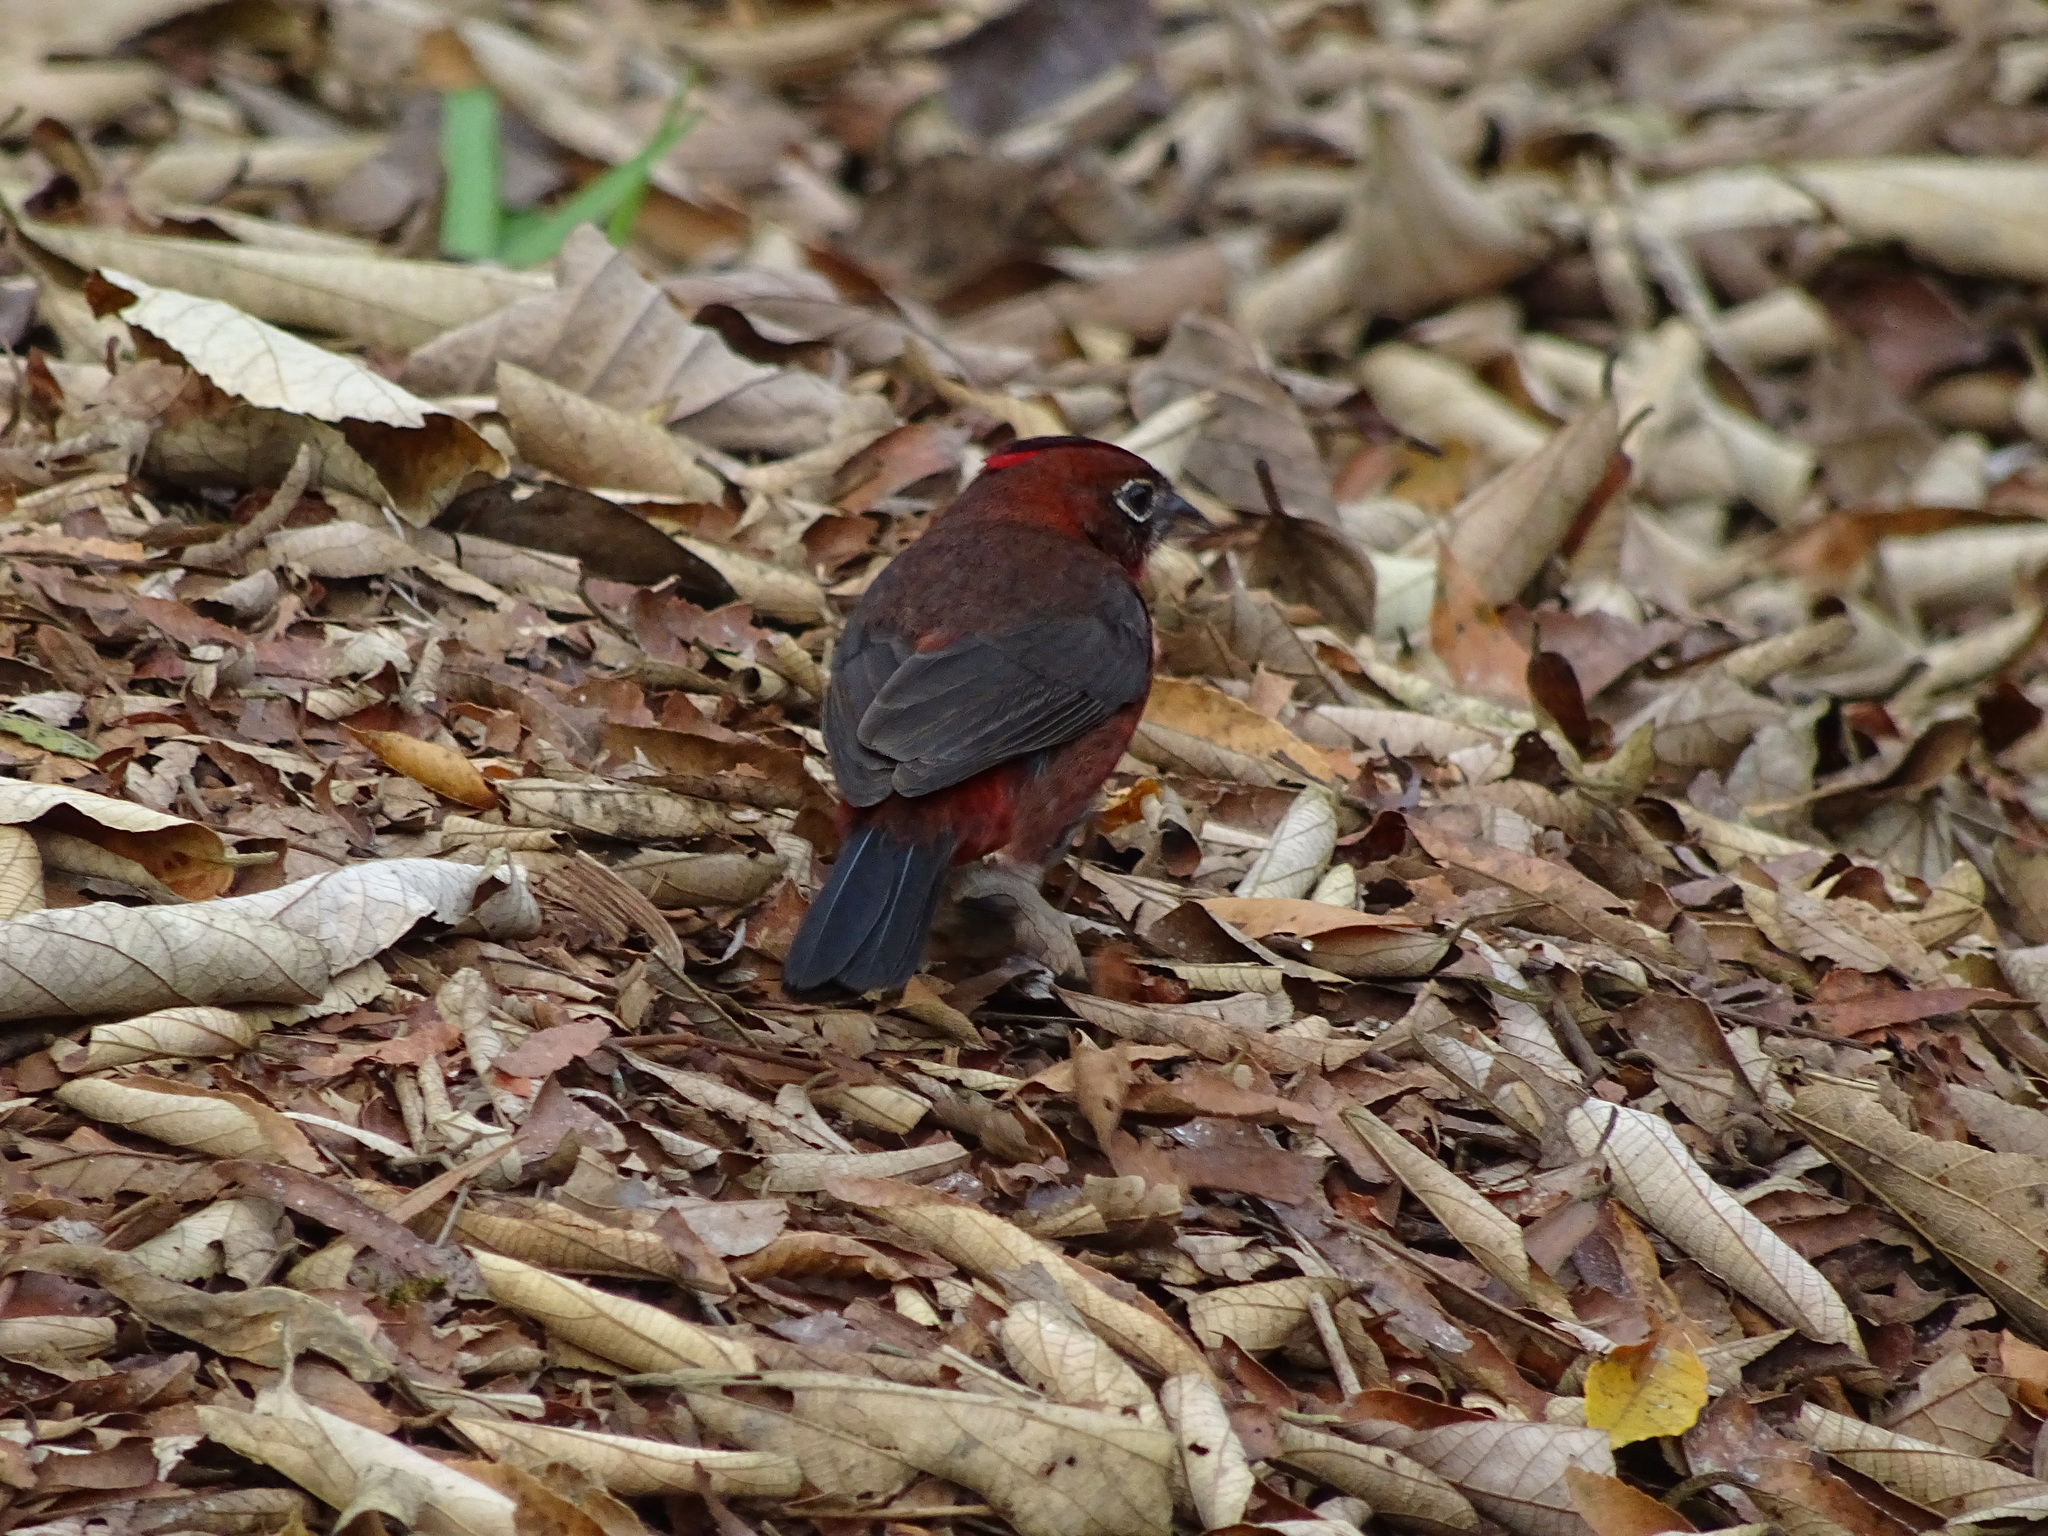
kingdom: Animalia
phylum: Chordata
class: Aves
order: Passeriformes
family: Thraupidae
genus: Coryphospingus
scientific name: Coryphospingus cucullatus
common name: Red pileated finch
